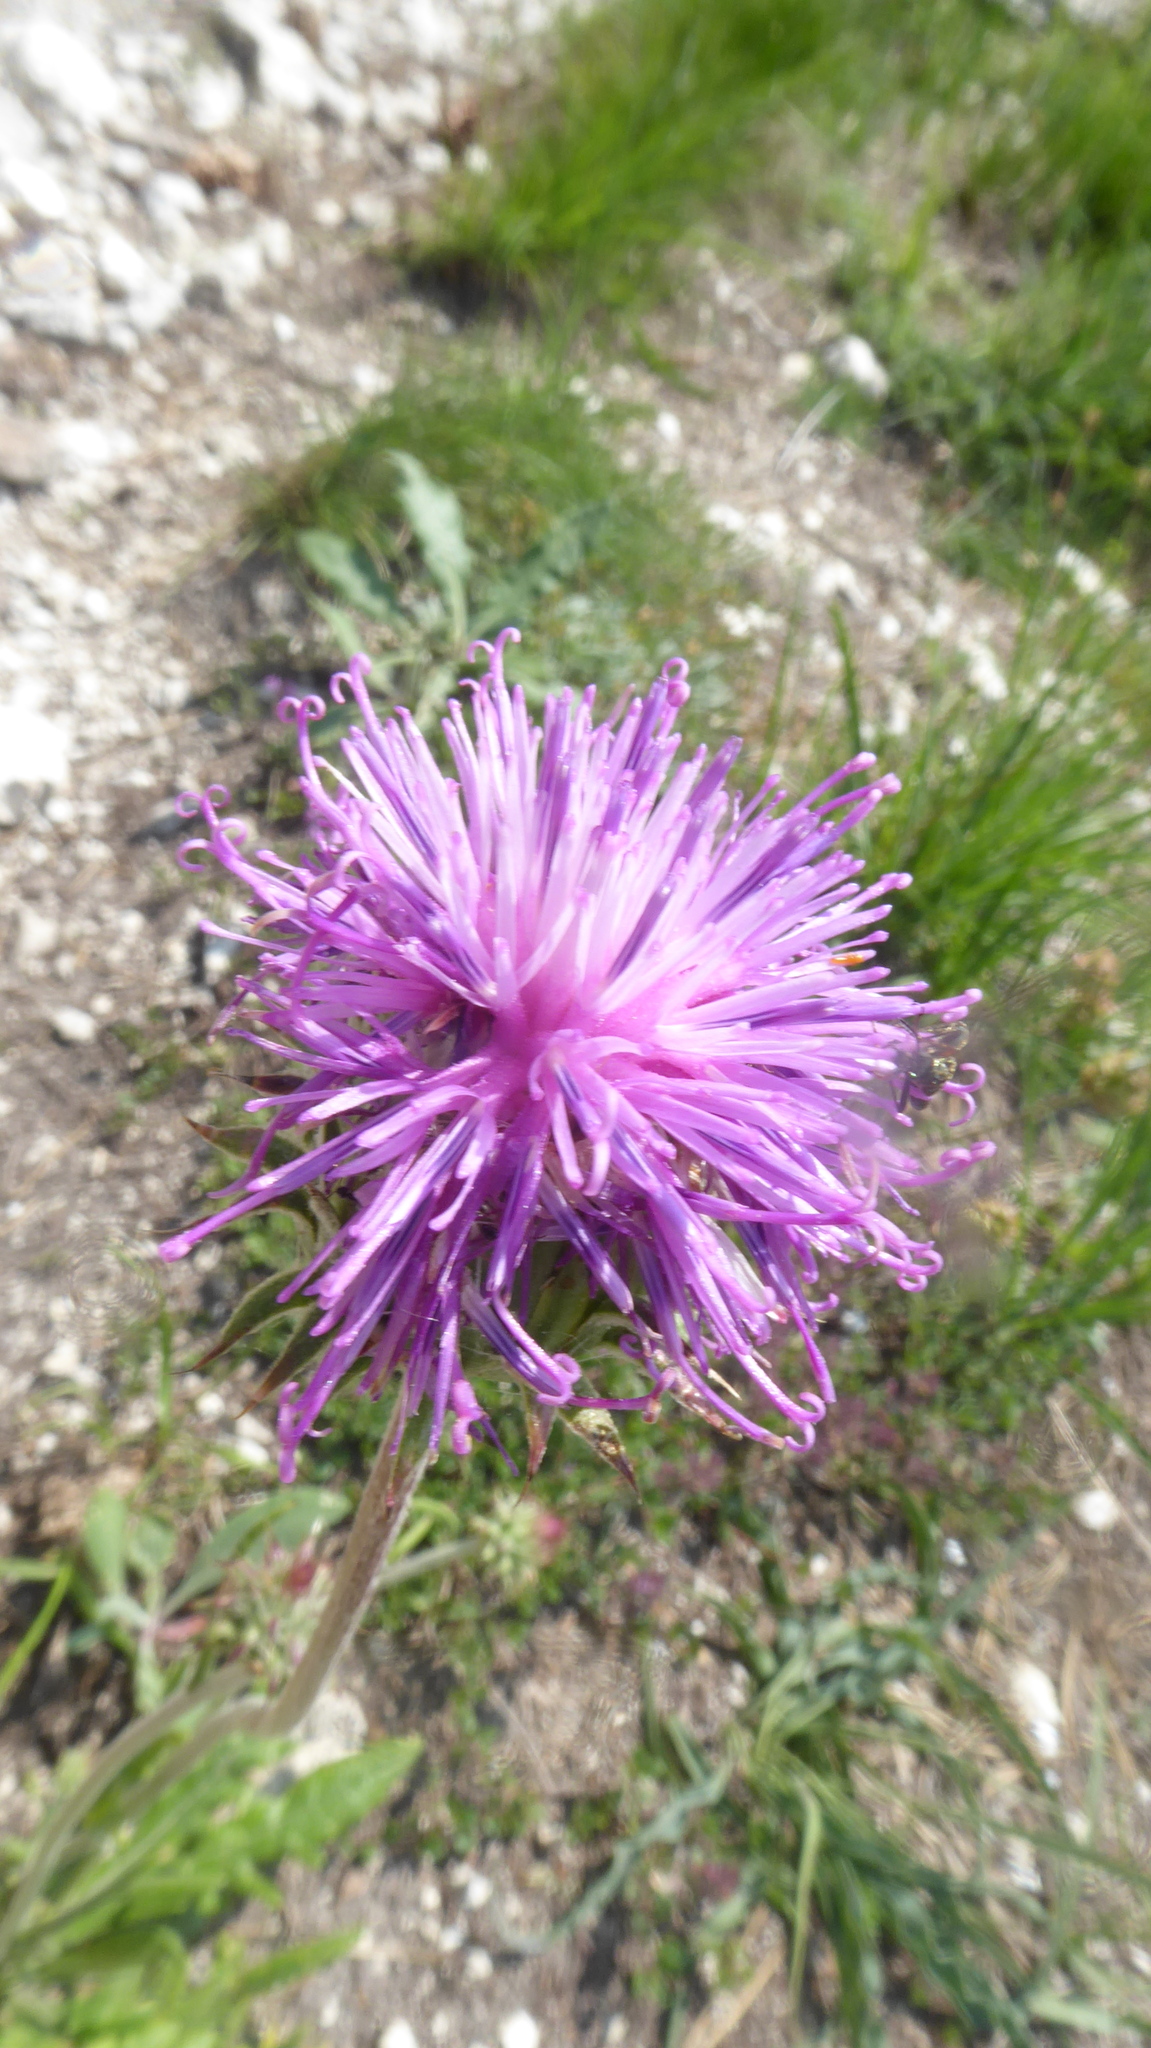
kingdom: Plantae
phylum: Tracheophyta
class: Magnoliopsida
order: Asterales
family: Asteraceae
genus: Jurinea
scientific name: Jurinea mollis
